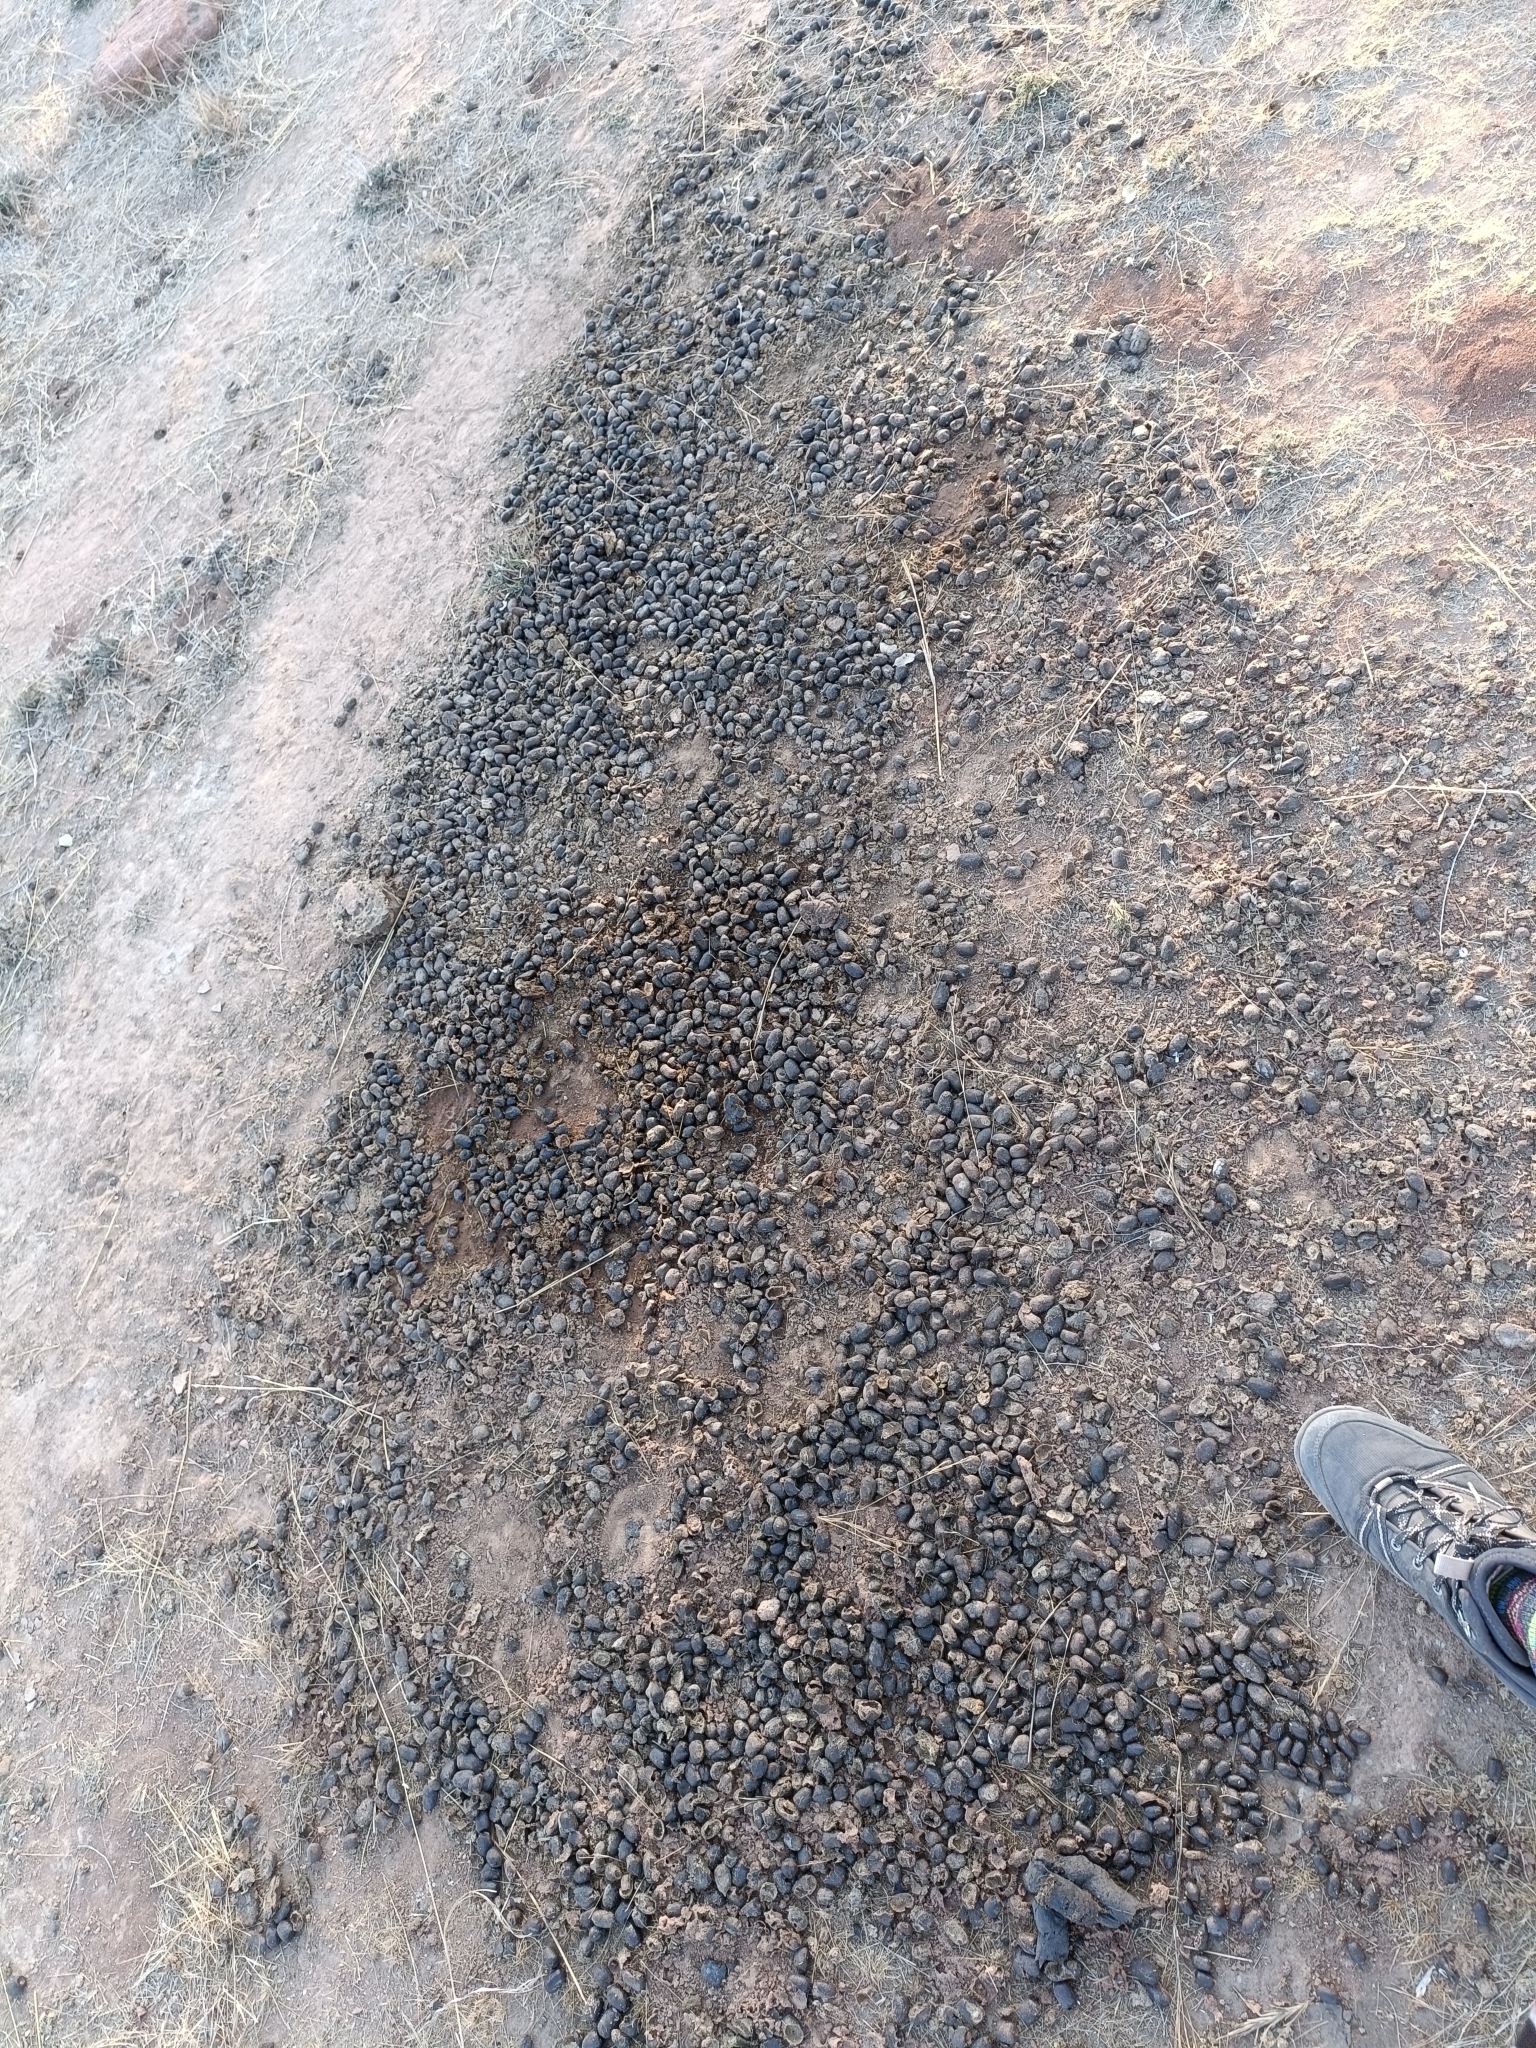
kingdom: Animalia
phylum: Chordata
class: Mammalia
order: Artiodactyla
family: Bovidae
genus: Boselaphus
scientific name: Boselaphus tragocamelus
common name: Nilgai
